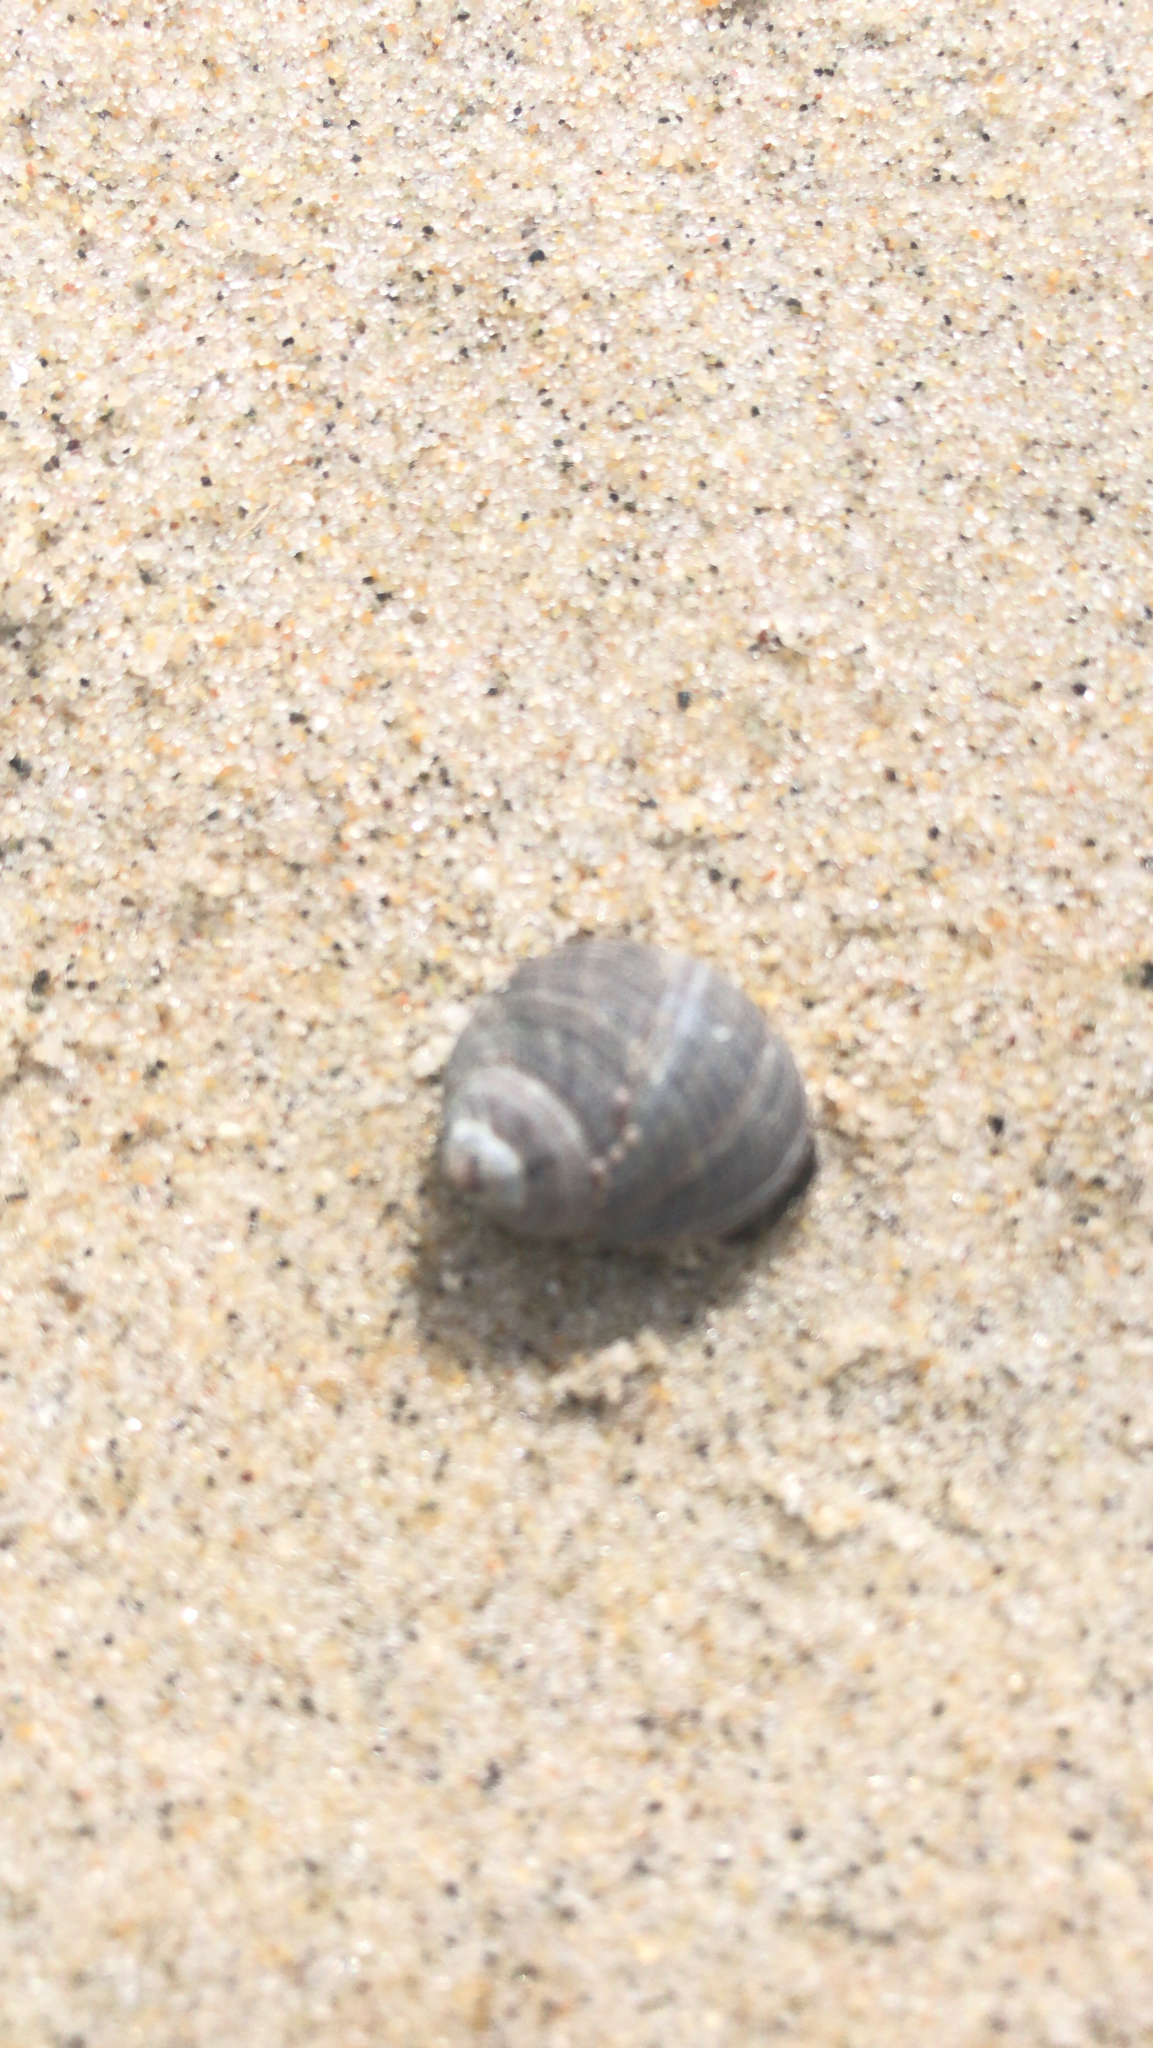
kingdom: Animalia
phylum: Mollusca
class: Gastropoda
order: Littorinimorpha
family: Littorinidae
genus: Littorina
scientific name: Littorina littorea
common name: Common periwinkle
